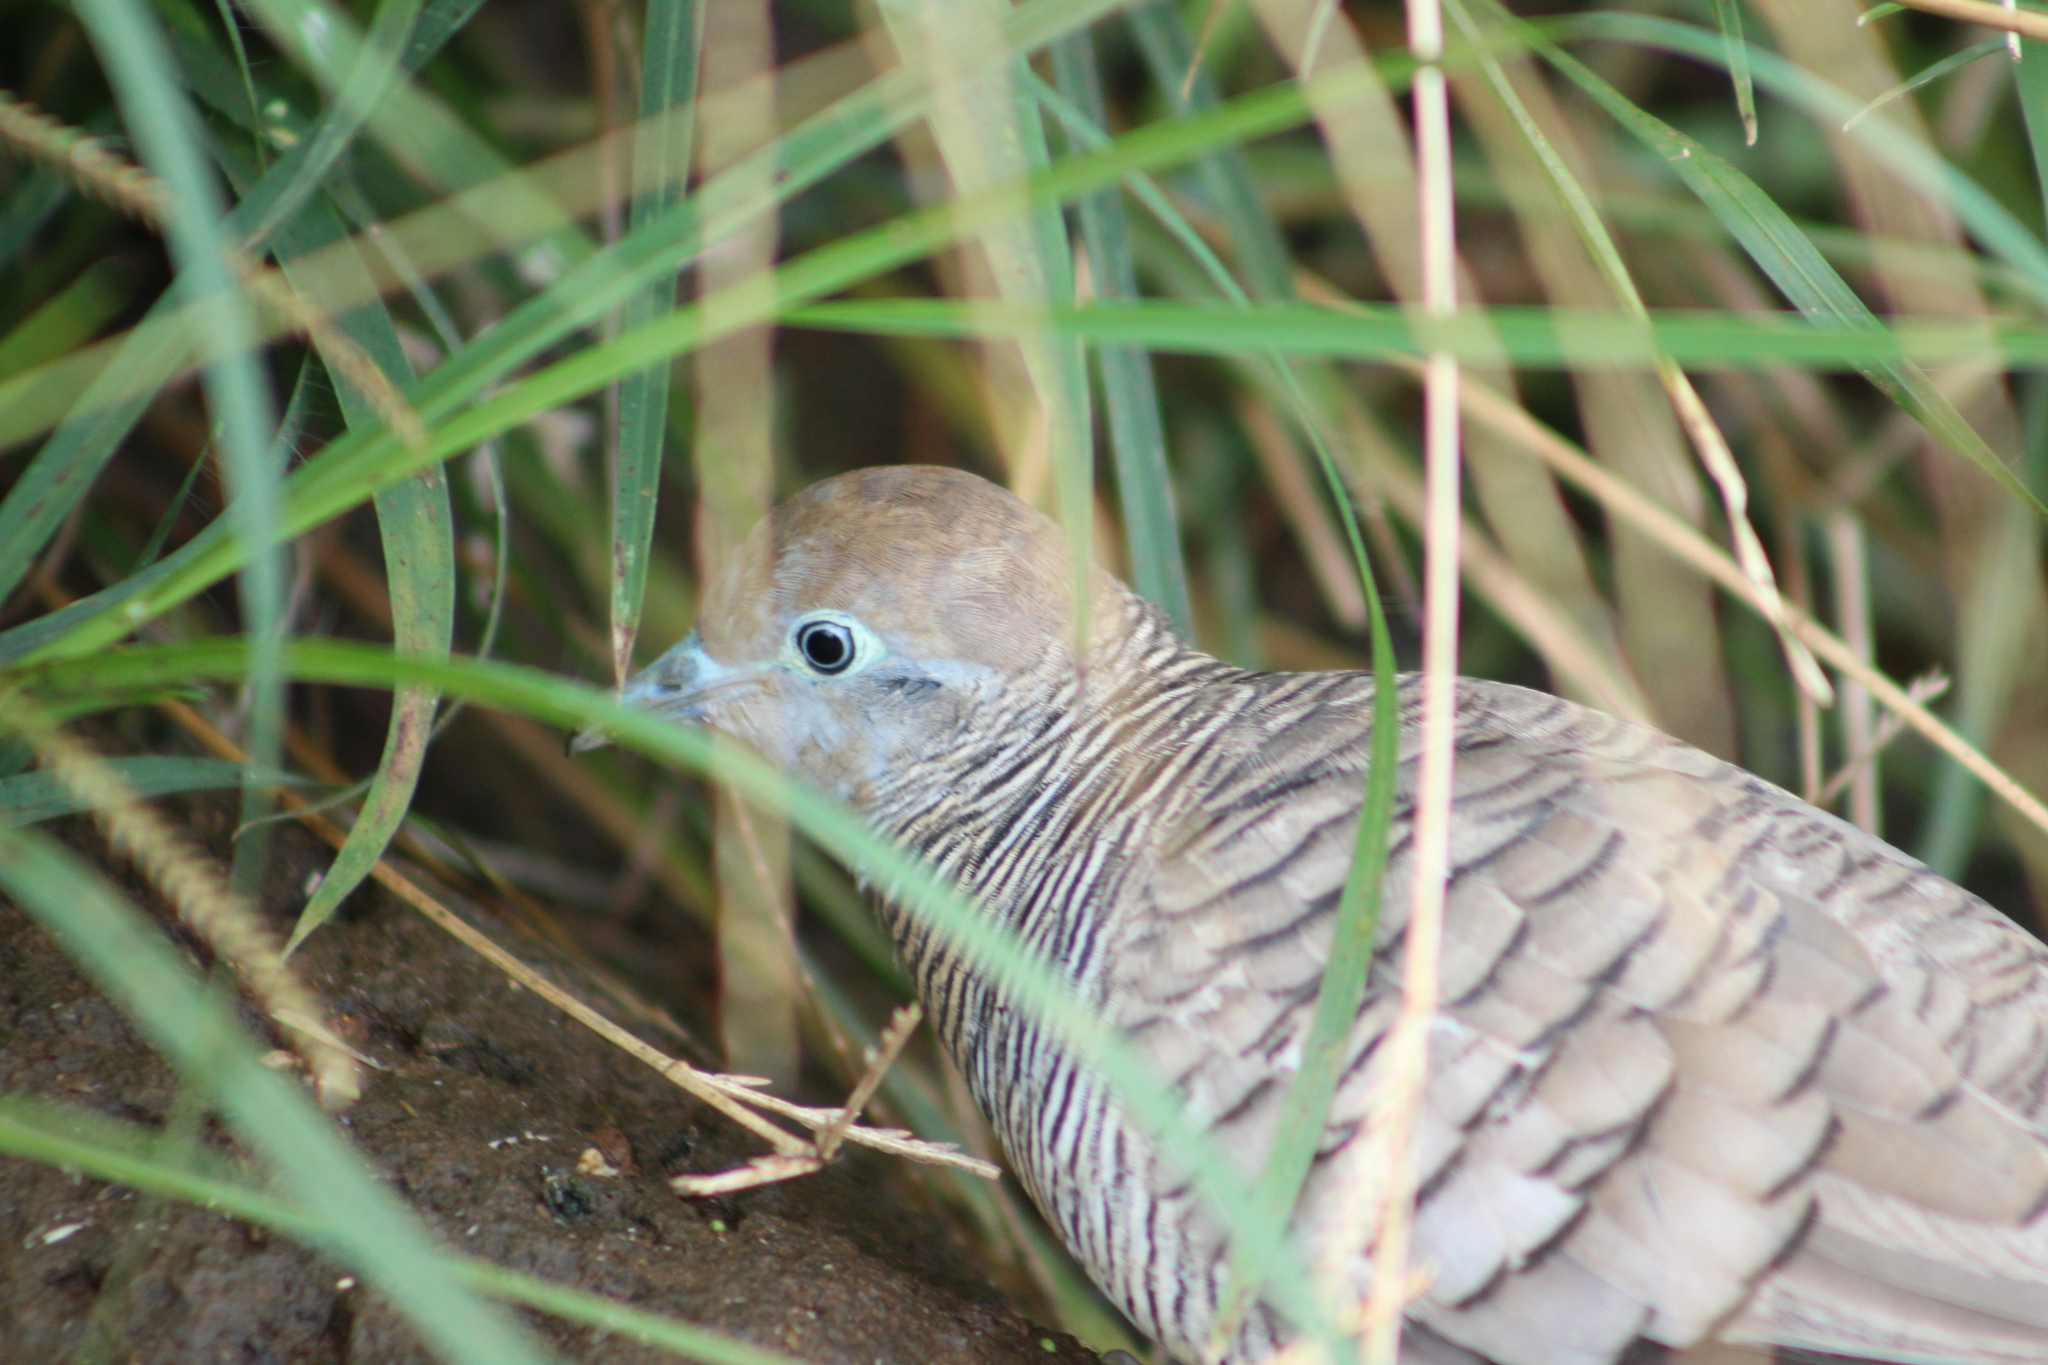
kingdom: Animalia
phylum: Chordata
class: Aves
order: Columbiformes
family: Columbidae
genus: Geopelia
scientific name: Geopelia striata
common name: Zebra dove
